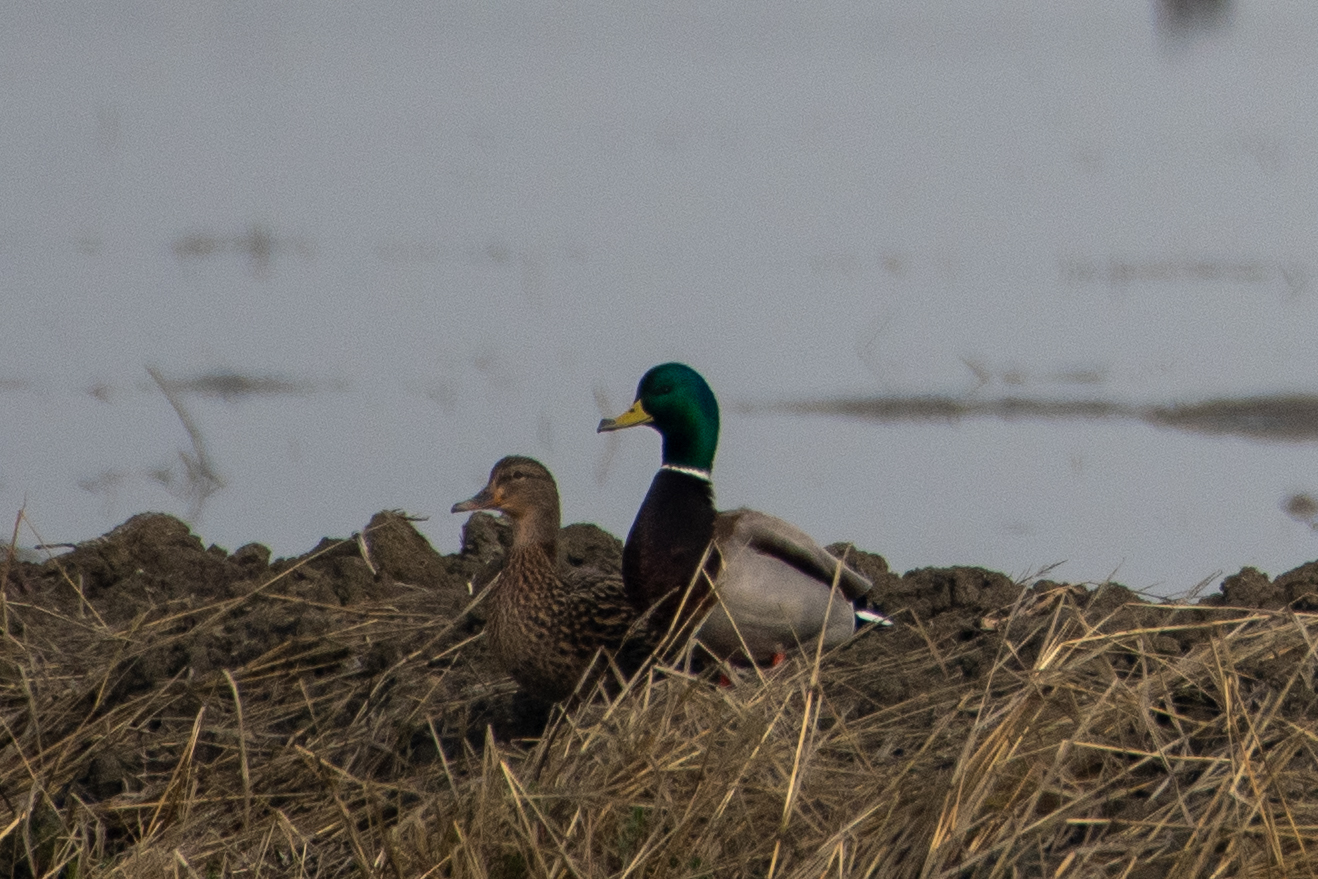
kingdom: Animalia
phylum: Chordata
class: Aves
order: Anseriformes
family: Anatidae
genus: Anas
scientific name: Anas platyrhynchos
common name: Mallard
